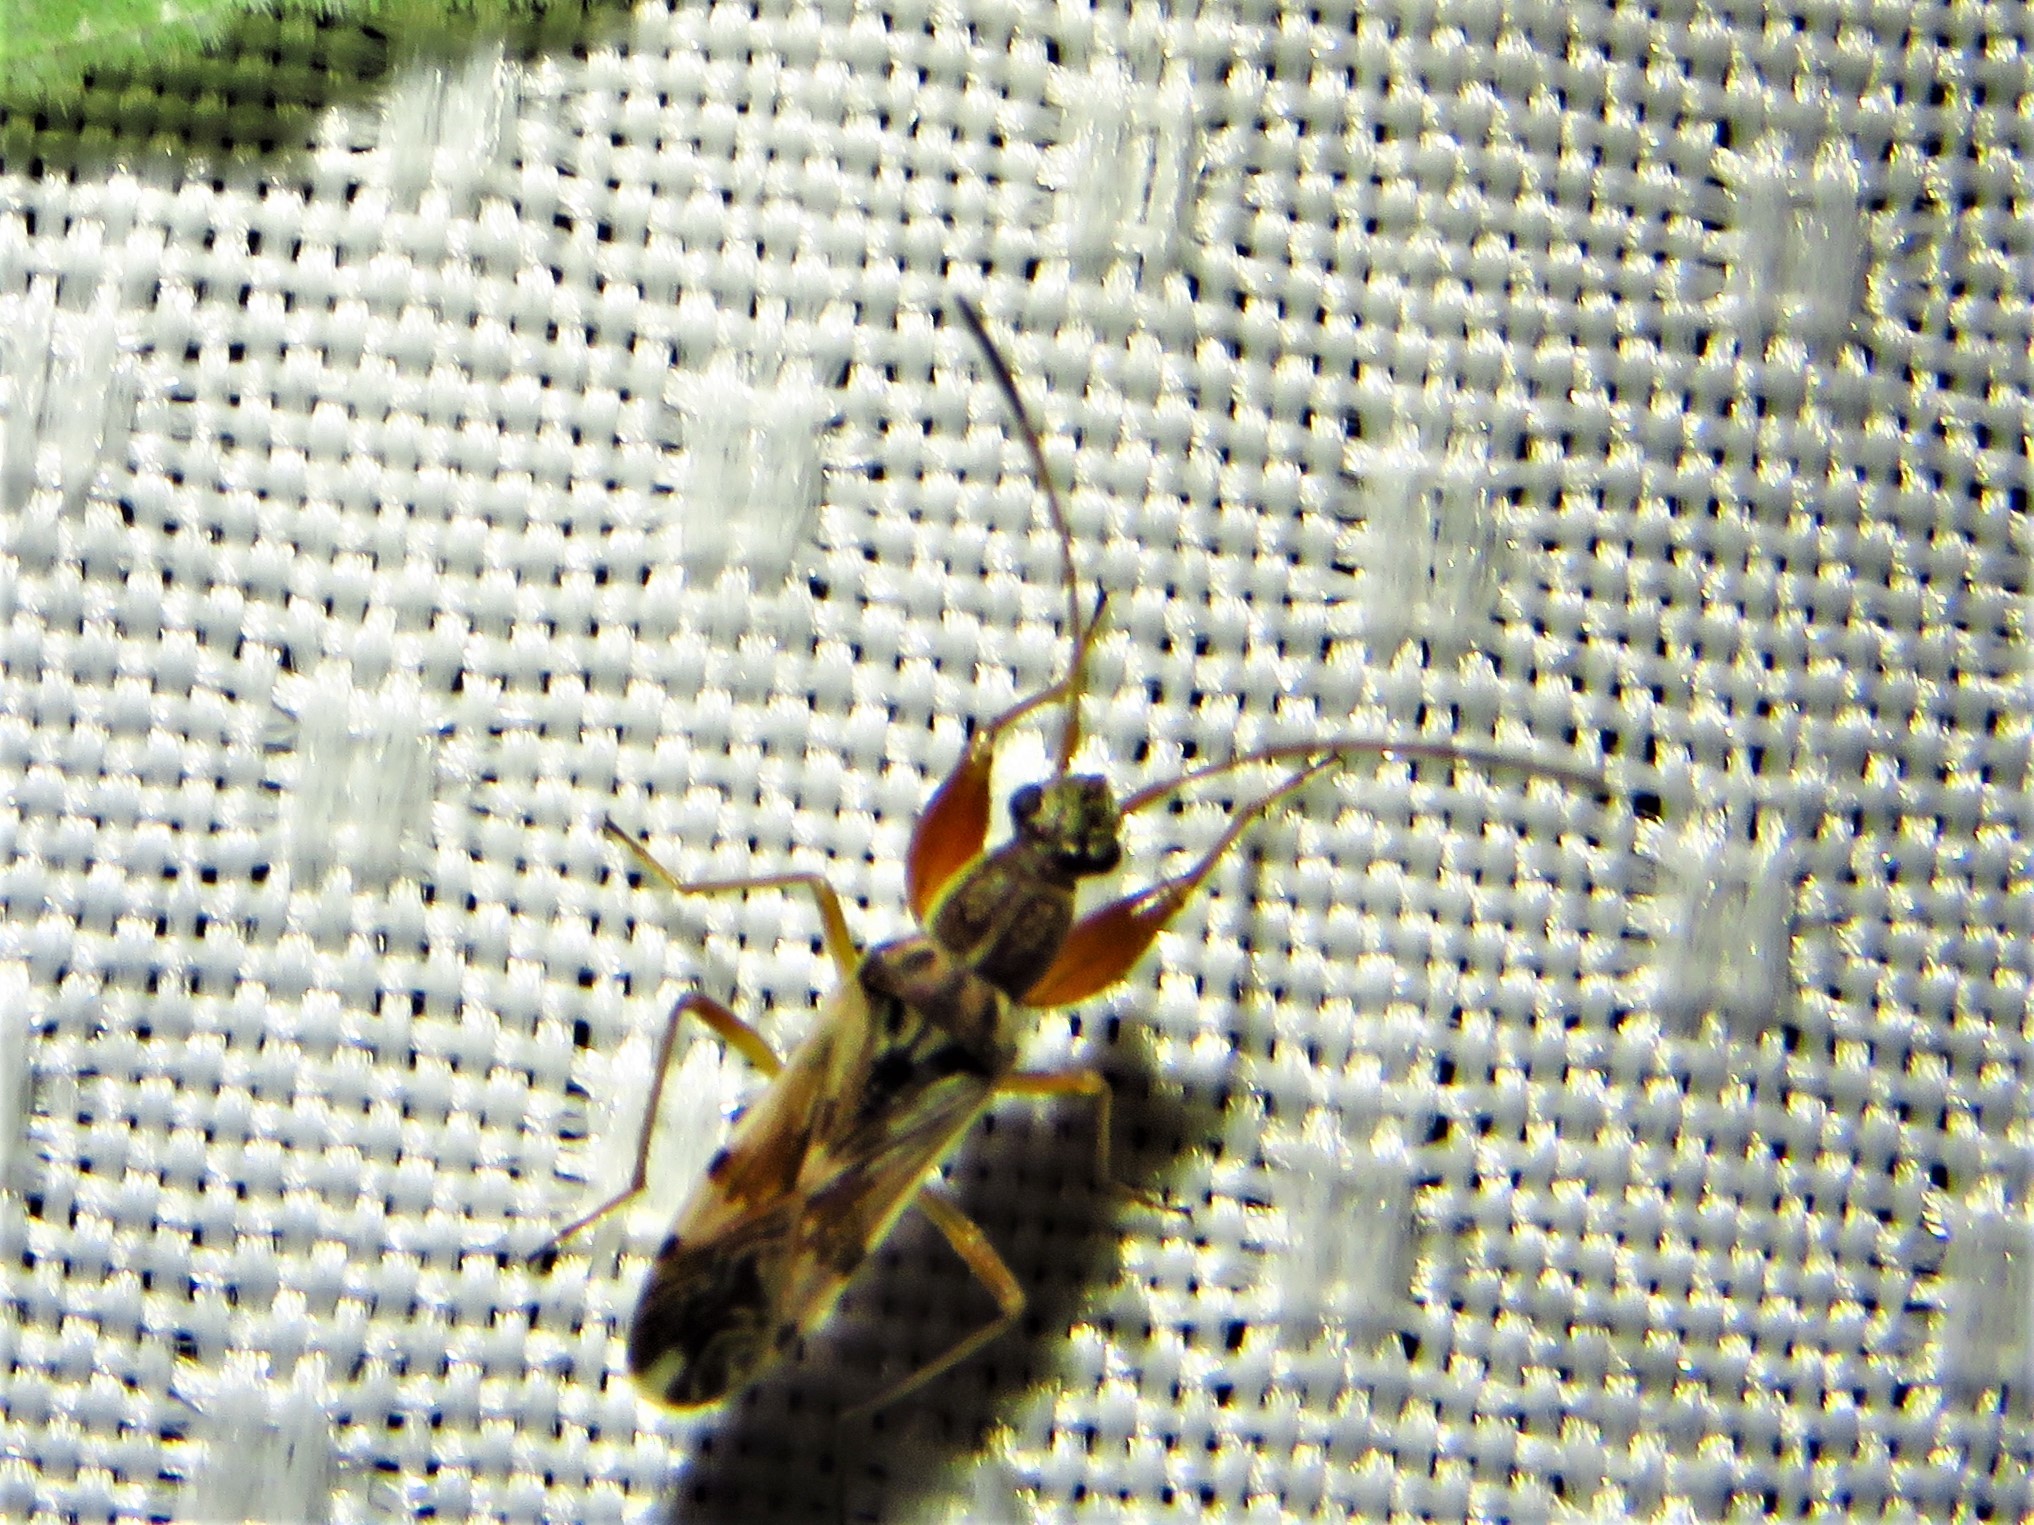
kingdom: Animalia
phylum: Arthropoda
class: Insecta
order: Hemiptera
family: Rhyparochromidae
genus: Neopamera
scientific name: Neopamera bilobata
